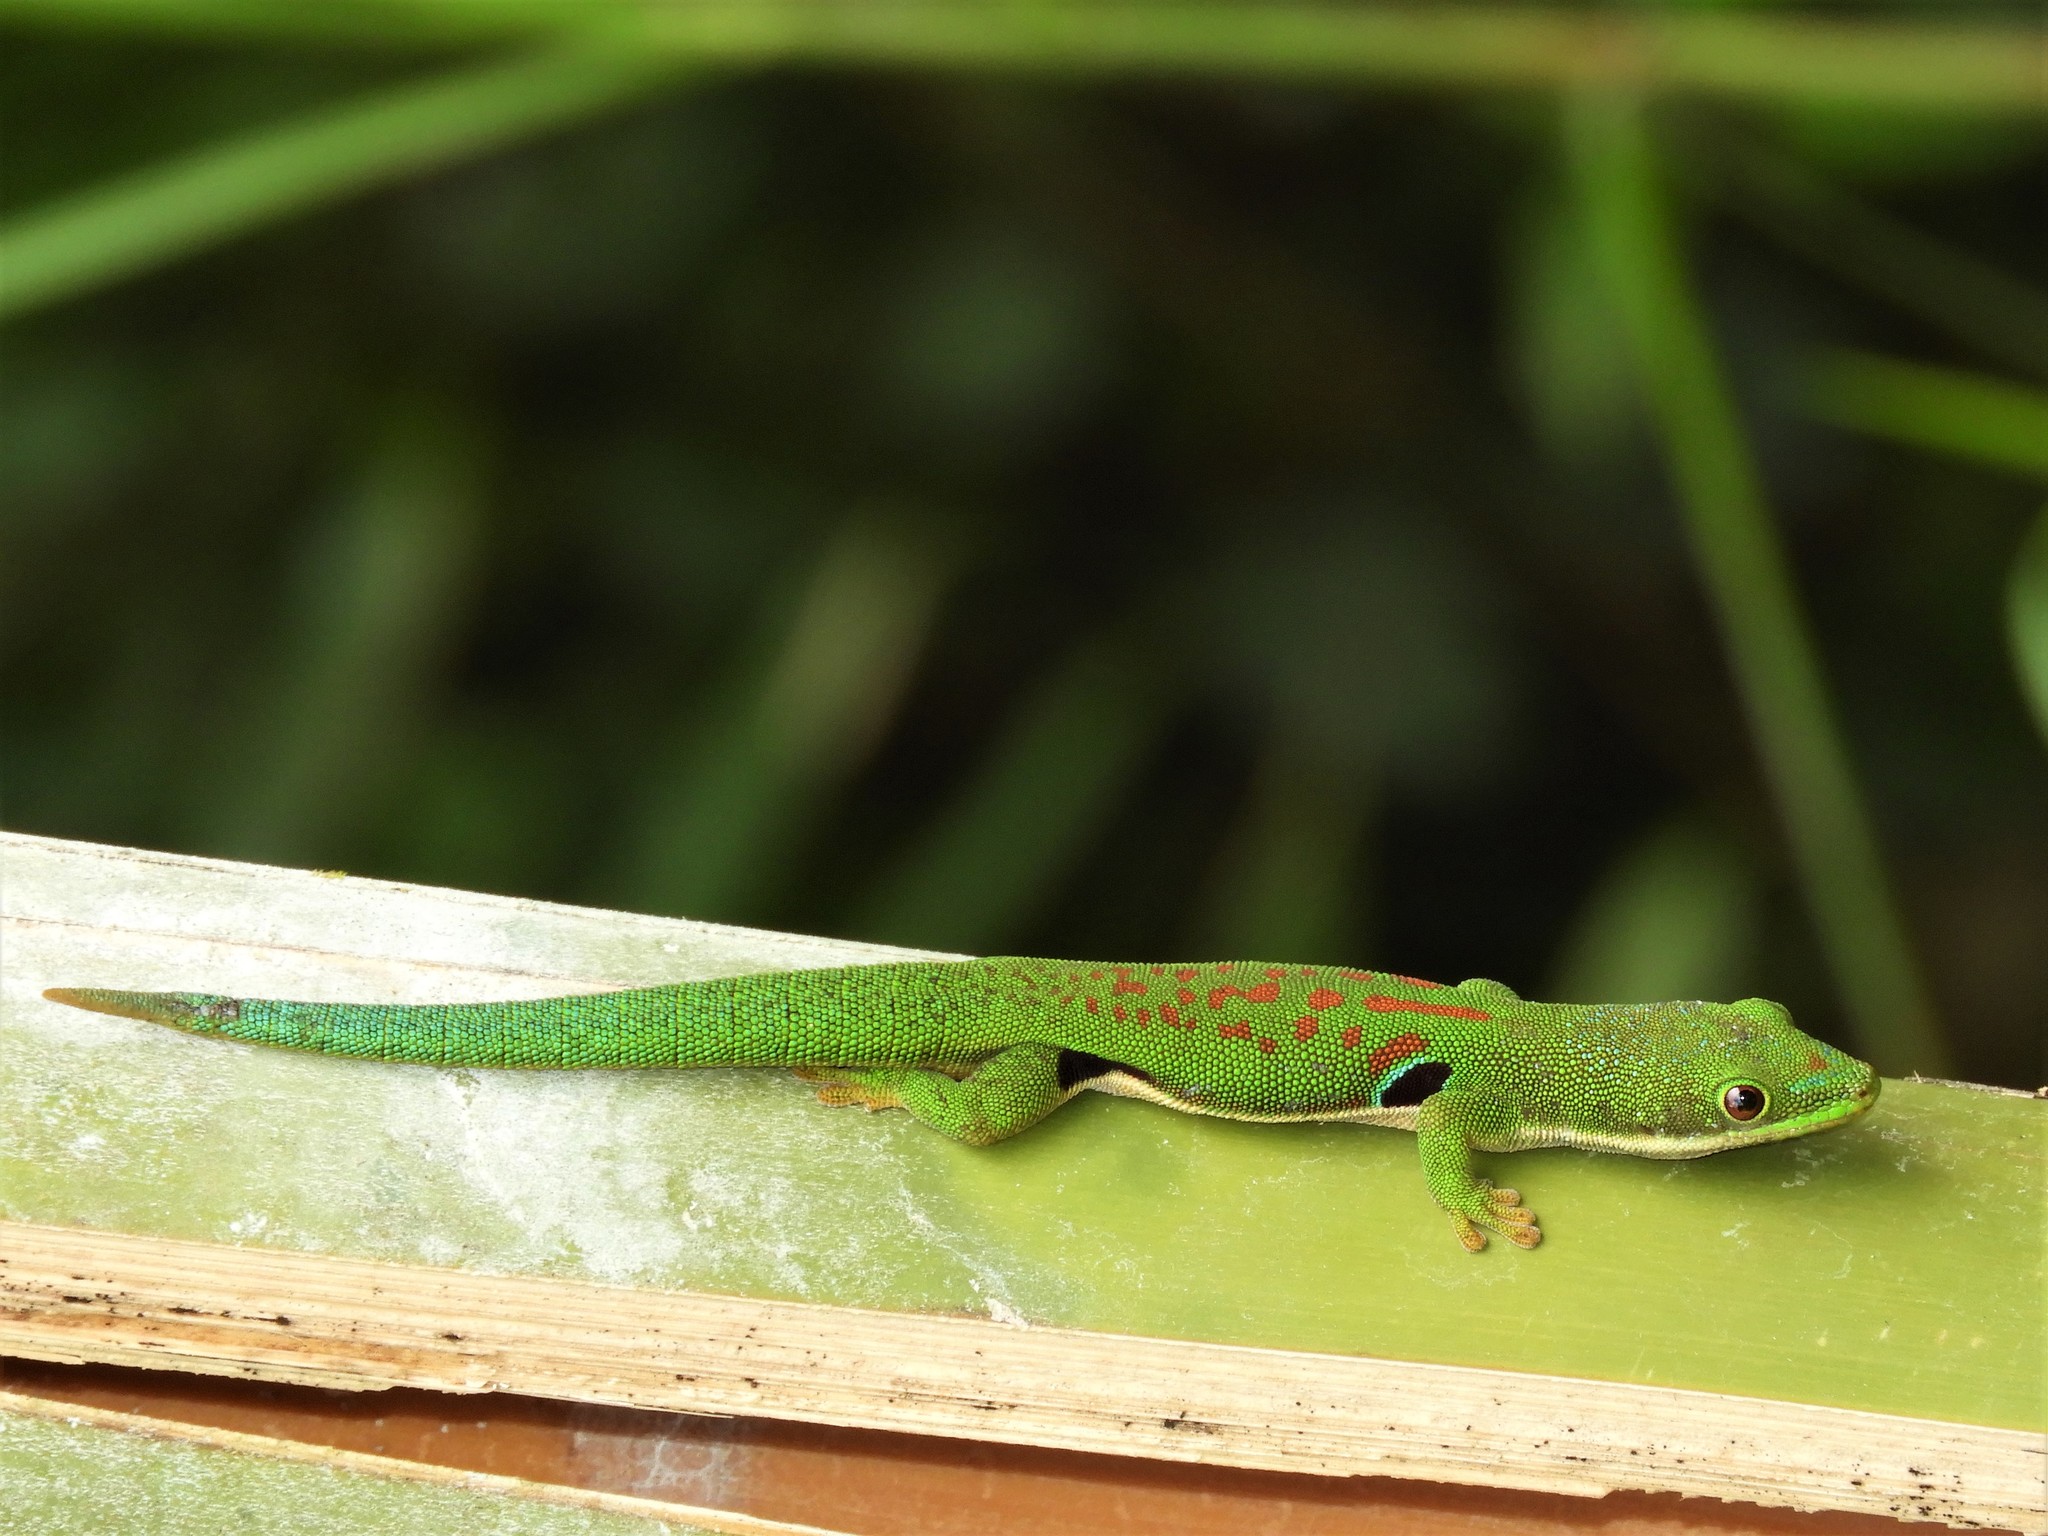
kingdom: Animalia
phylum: Chordata
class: Squamata
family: Gekkonidae
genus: Phelsuma
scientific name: Phelsuma quadriocellata
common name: Peacock day gecko
